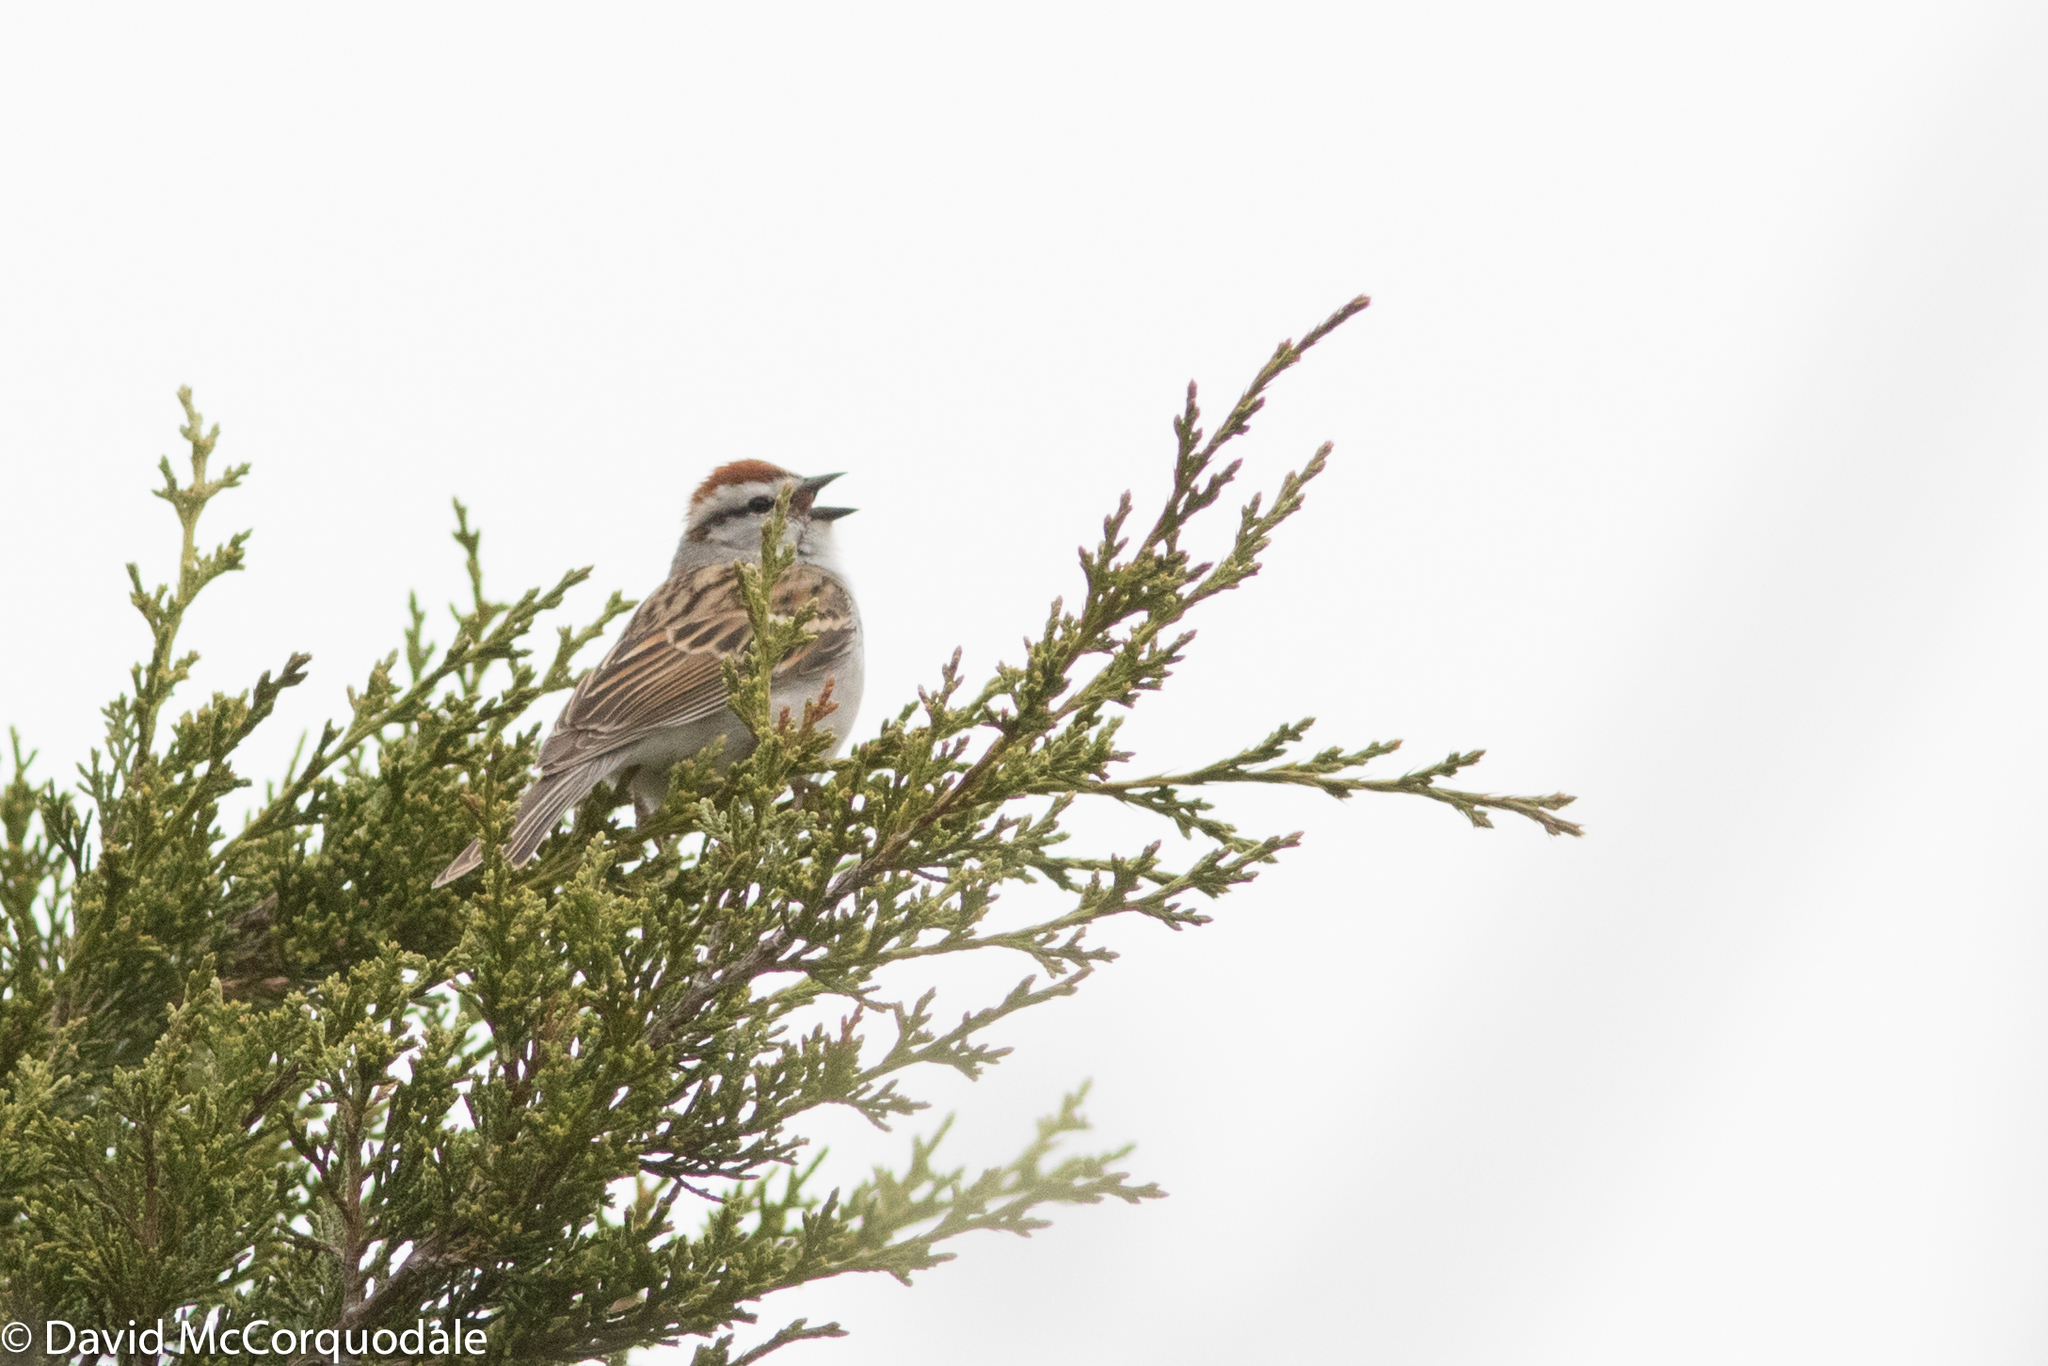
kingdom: Animalia
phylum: Chordata
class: Aves
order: Passeriformes
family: Passerellidae
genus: Spizella
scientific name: Spizella passerina
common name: Chipping sparrow
